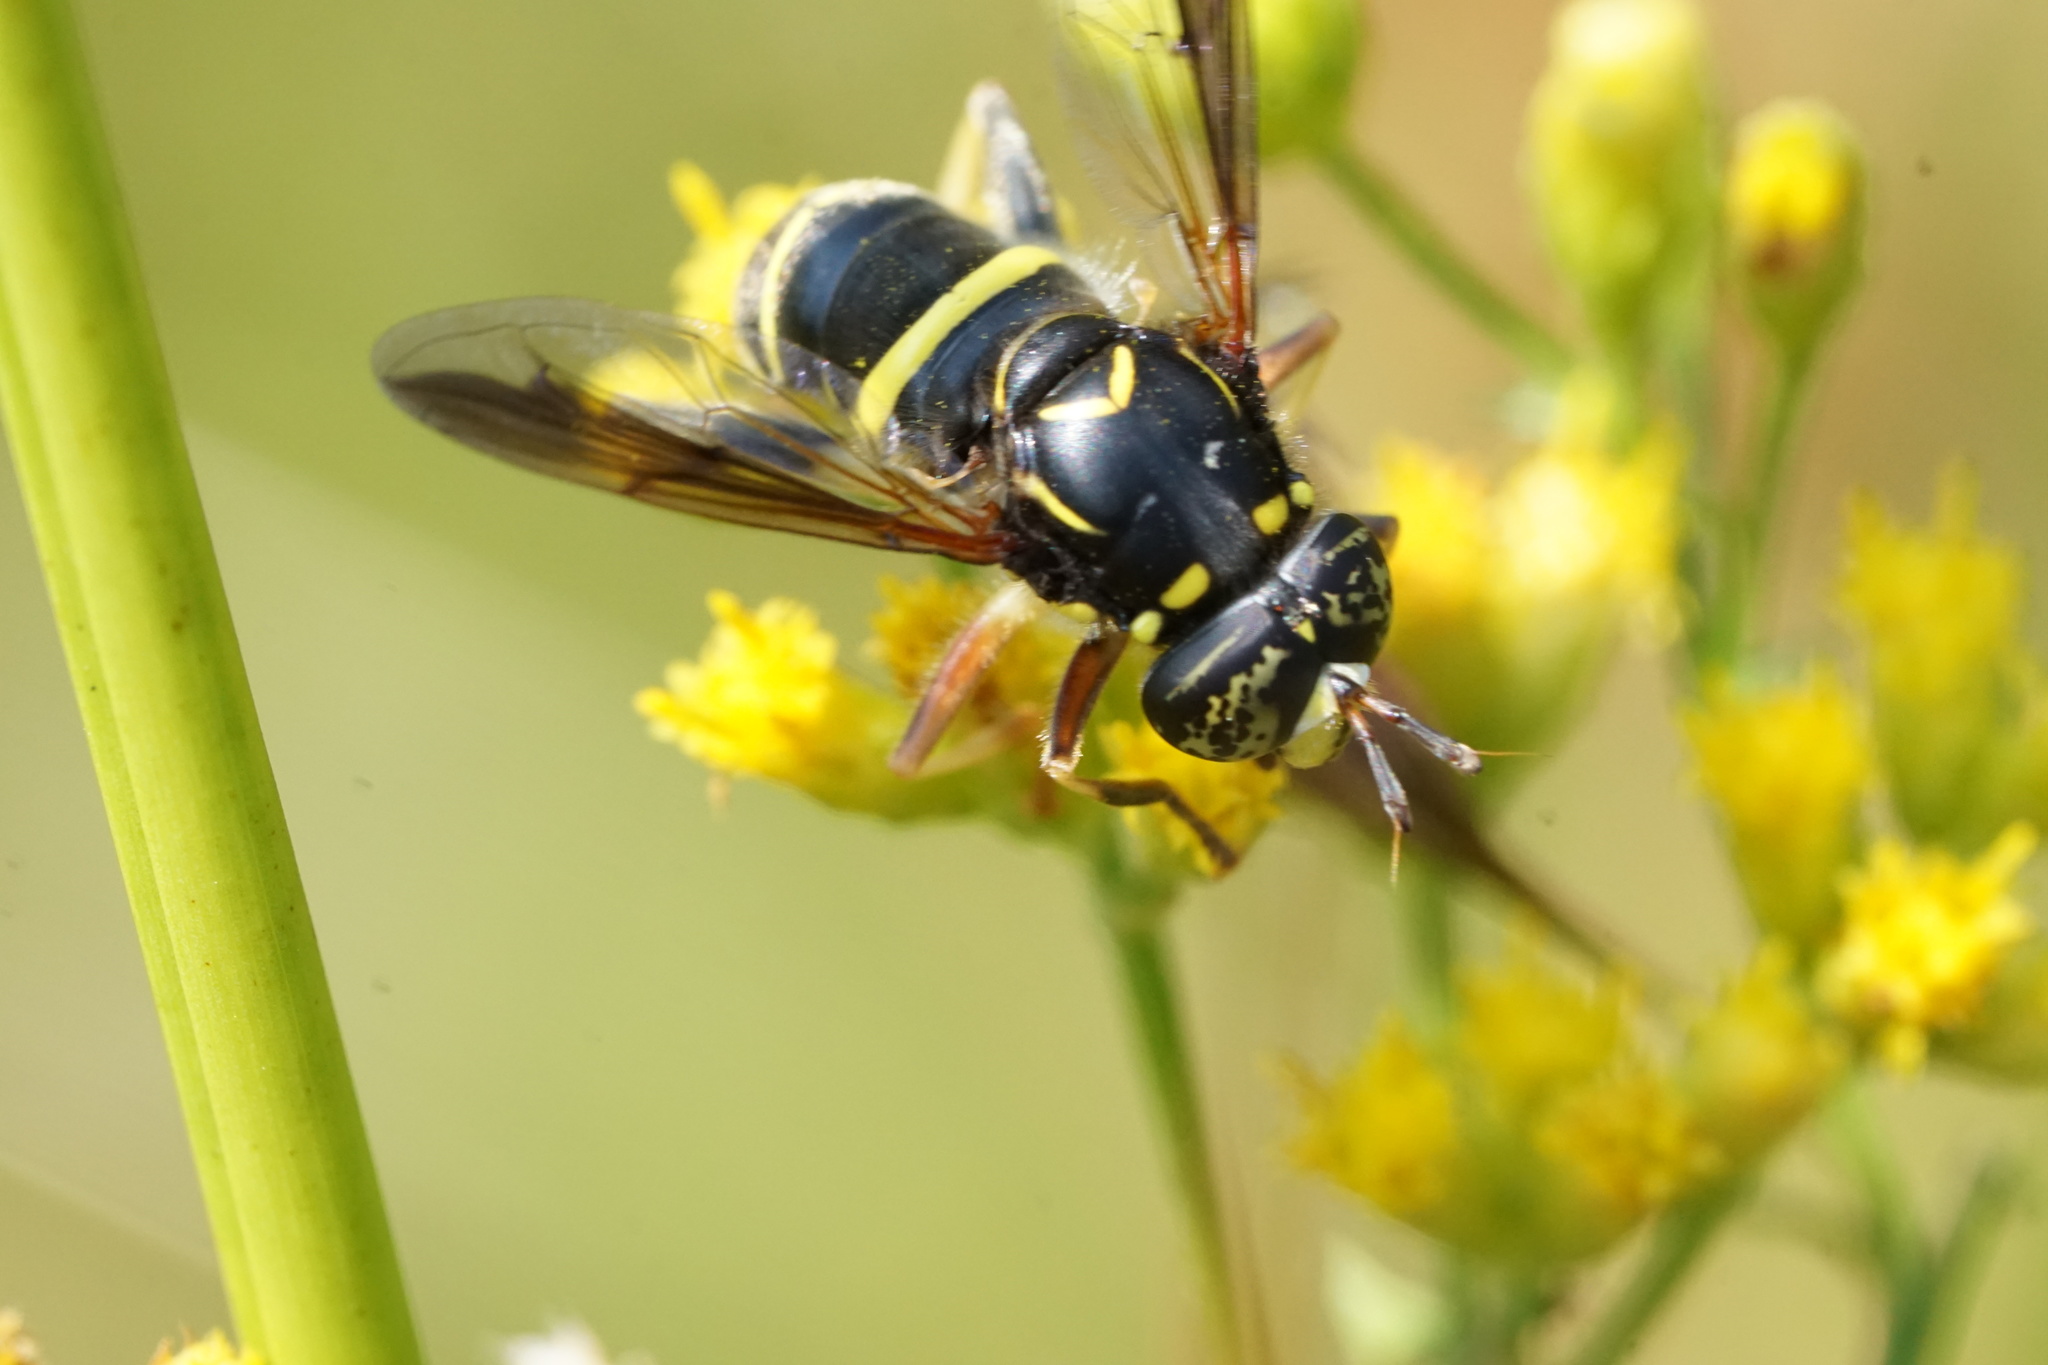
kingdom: Animalia
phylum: Arthropoda
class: Insecta
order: Diptera
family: Syrphidae
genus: Spilomyia
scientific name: Spilomyia sayi
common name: Four-lined hornet fly
